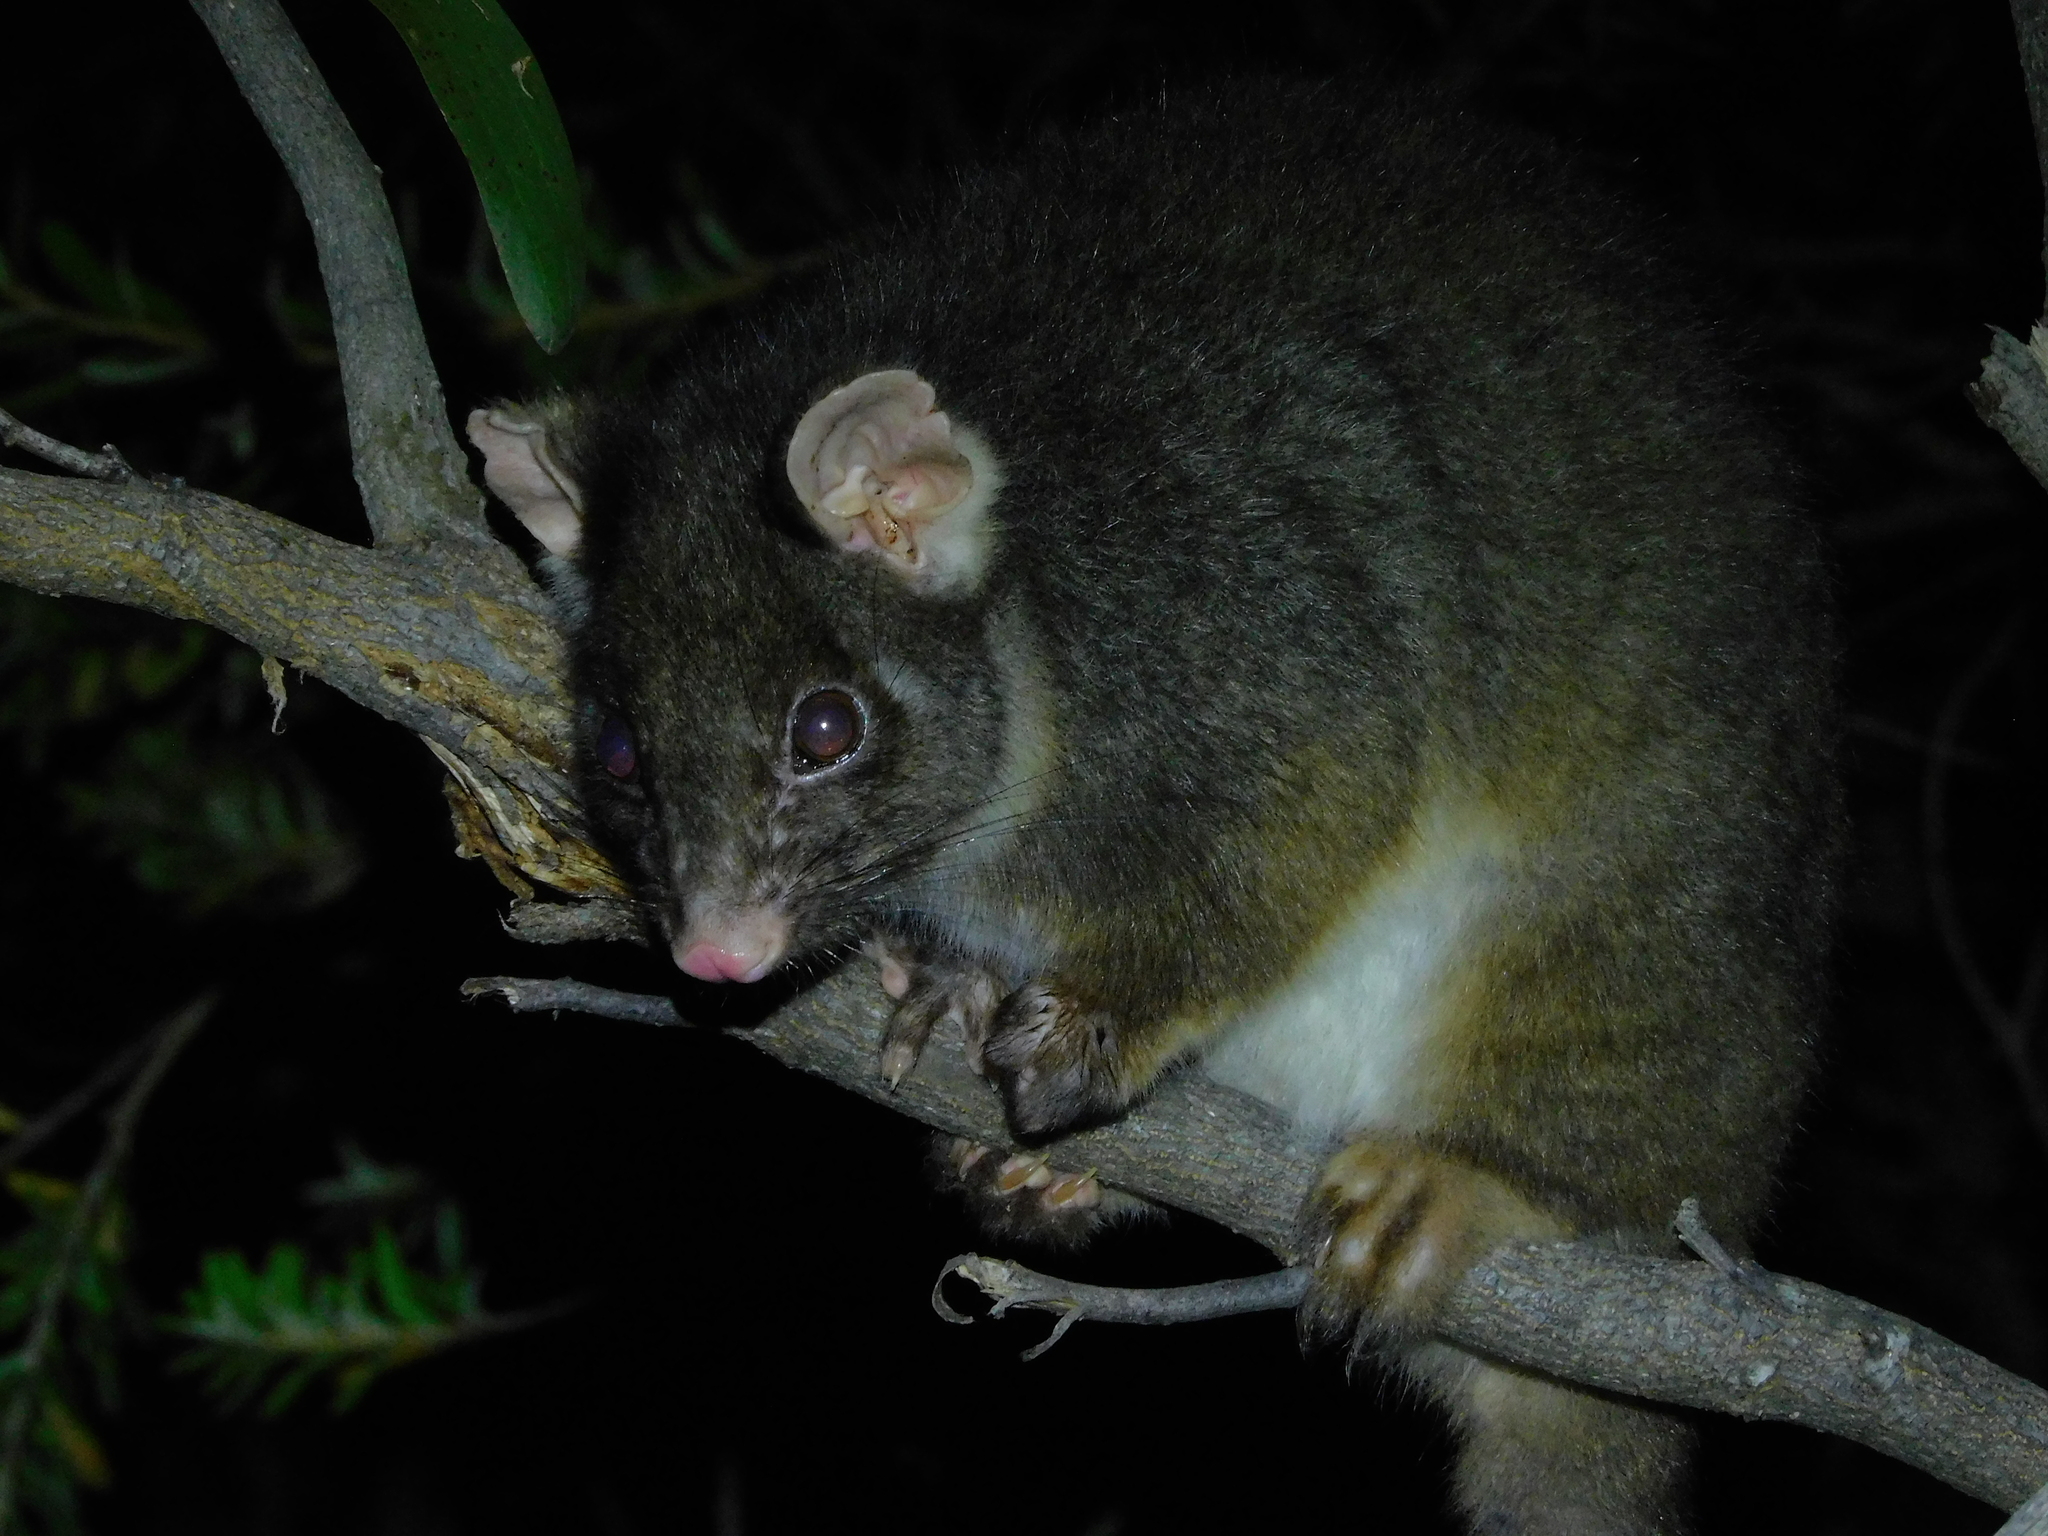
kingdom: Animalia
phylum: Chordata
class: Mammalia
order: Diprotodontia
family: Pseudocheiridae
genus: Pseudocheirus
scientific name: Pseudocheirus peregrinus
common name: Common ringtail possum
